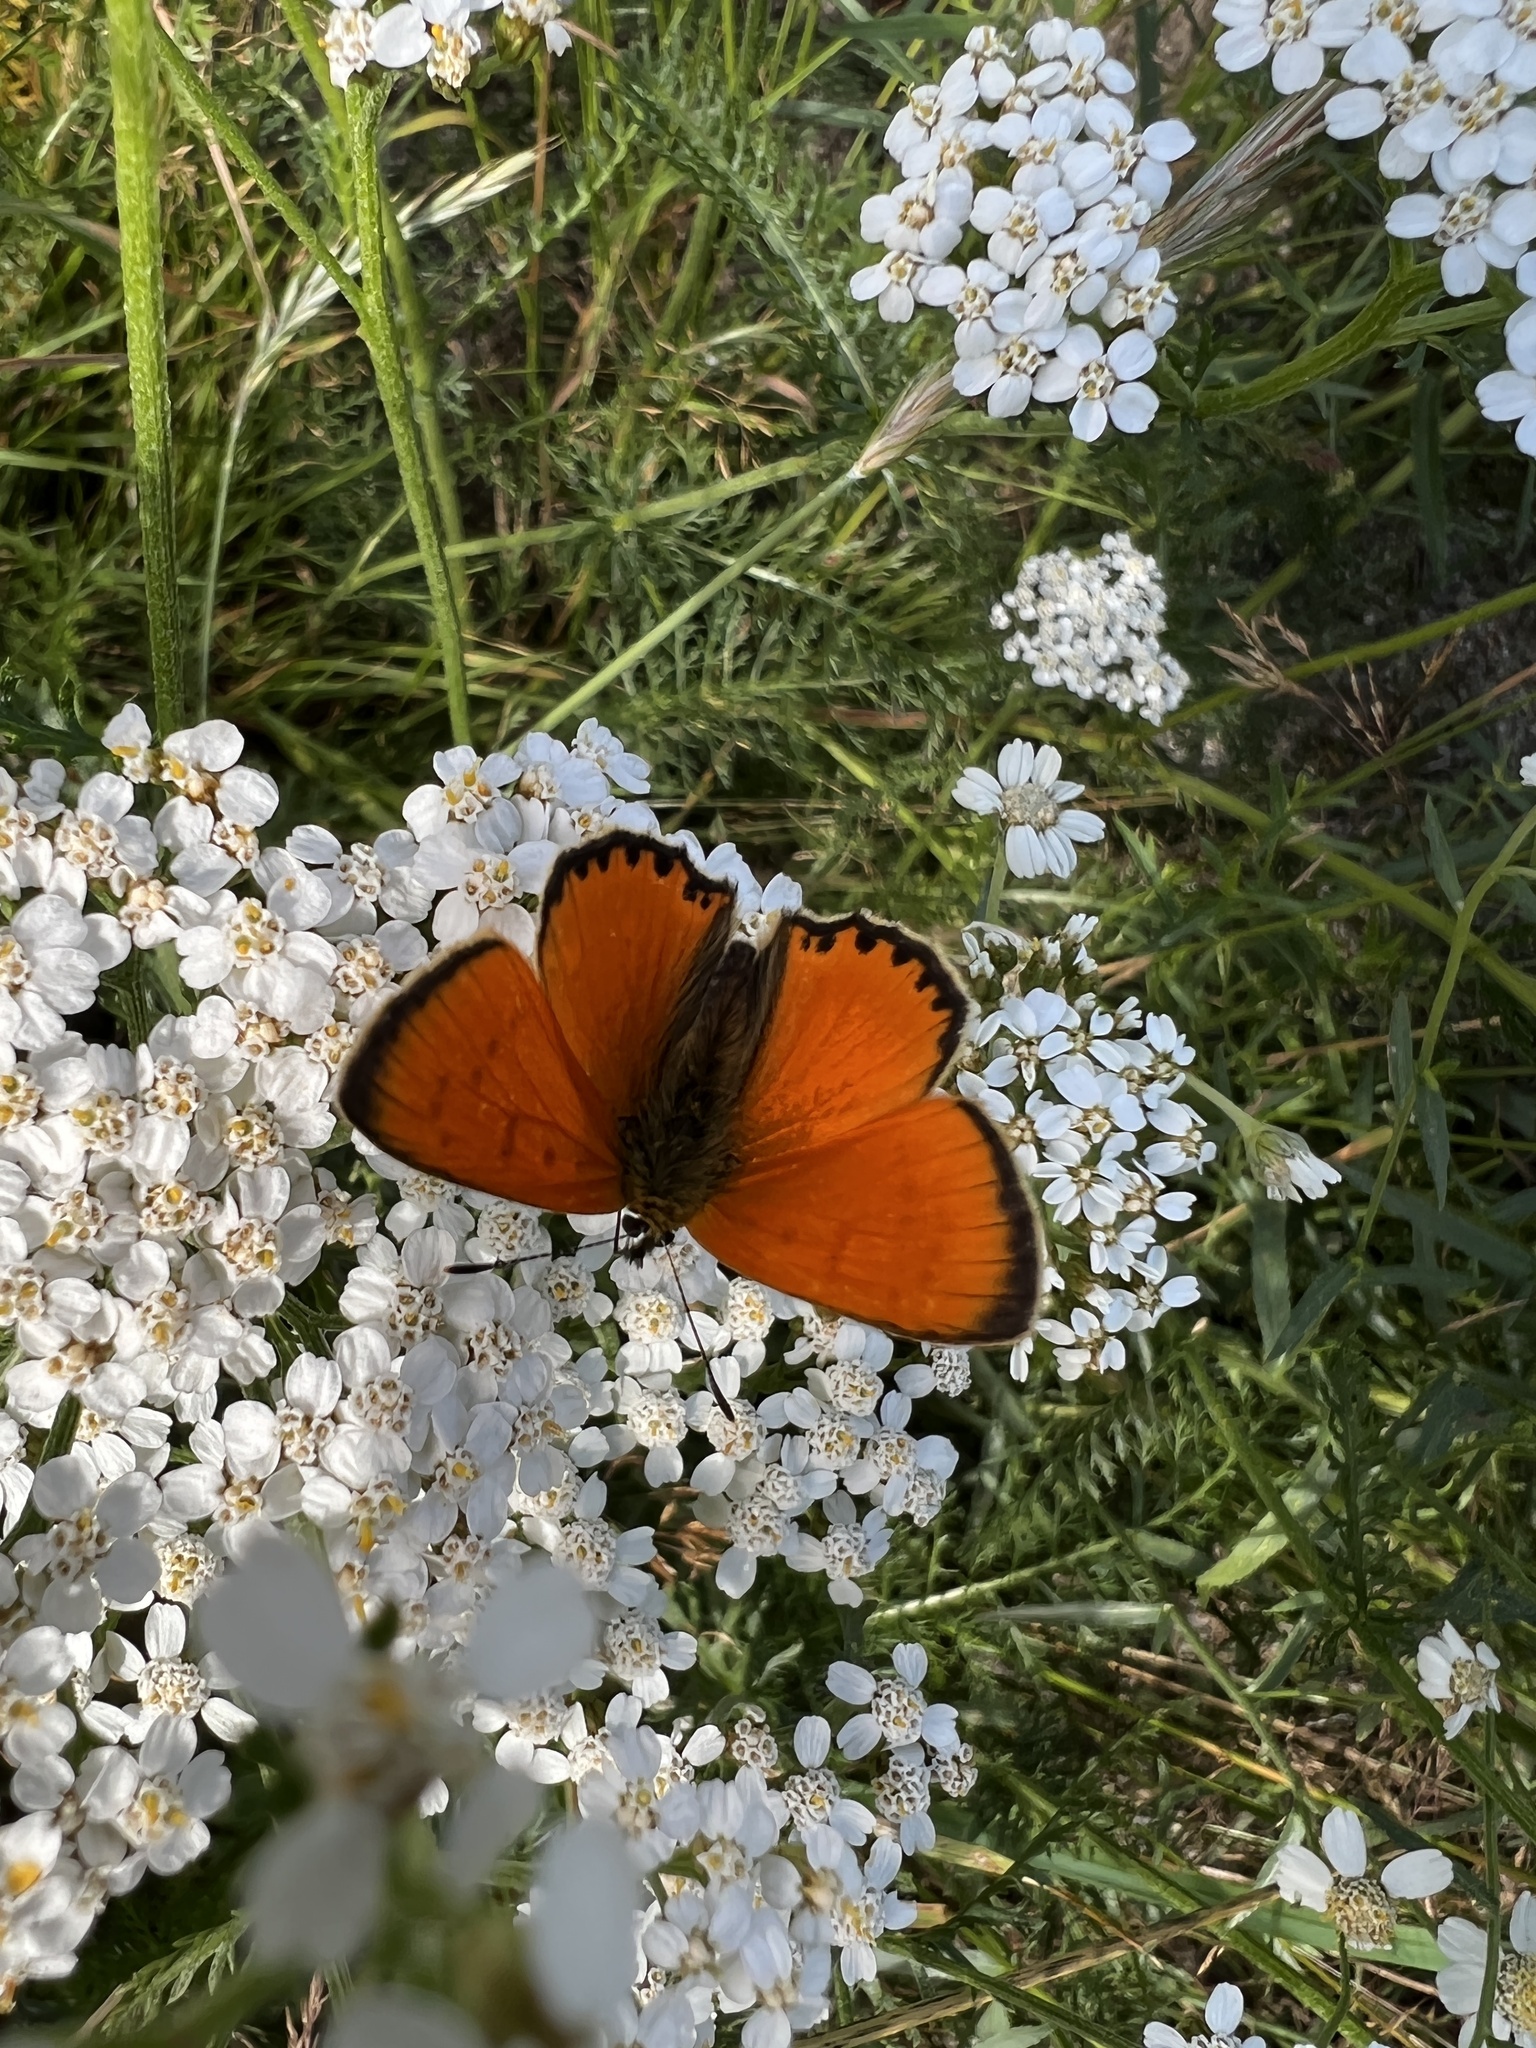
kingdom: Animalia
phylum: Arthropoda
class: Insecta
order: Lepidoptera
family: Lycaenidae
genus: Lycaena
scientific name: Lycaena virgaureae
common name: Scarce copper
